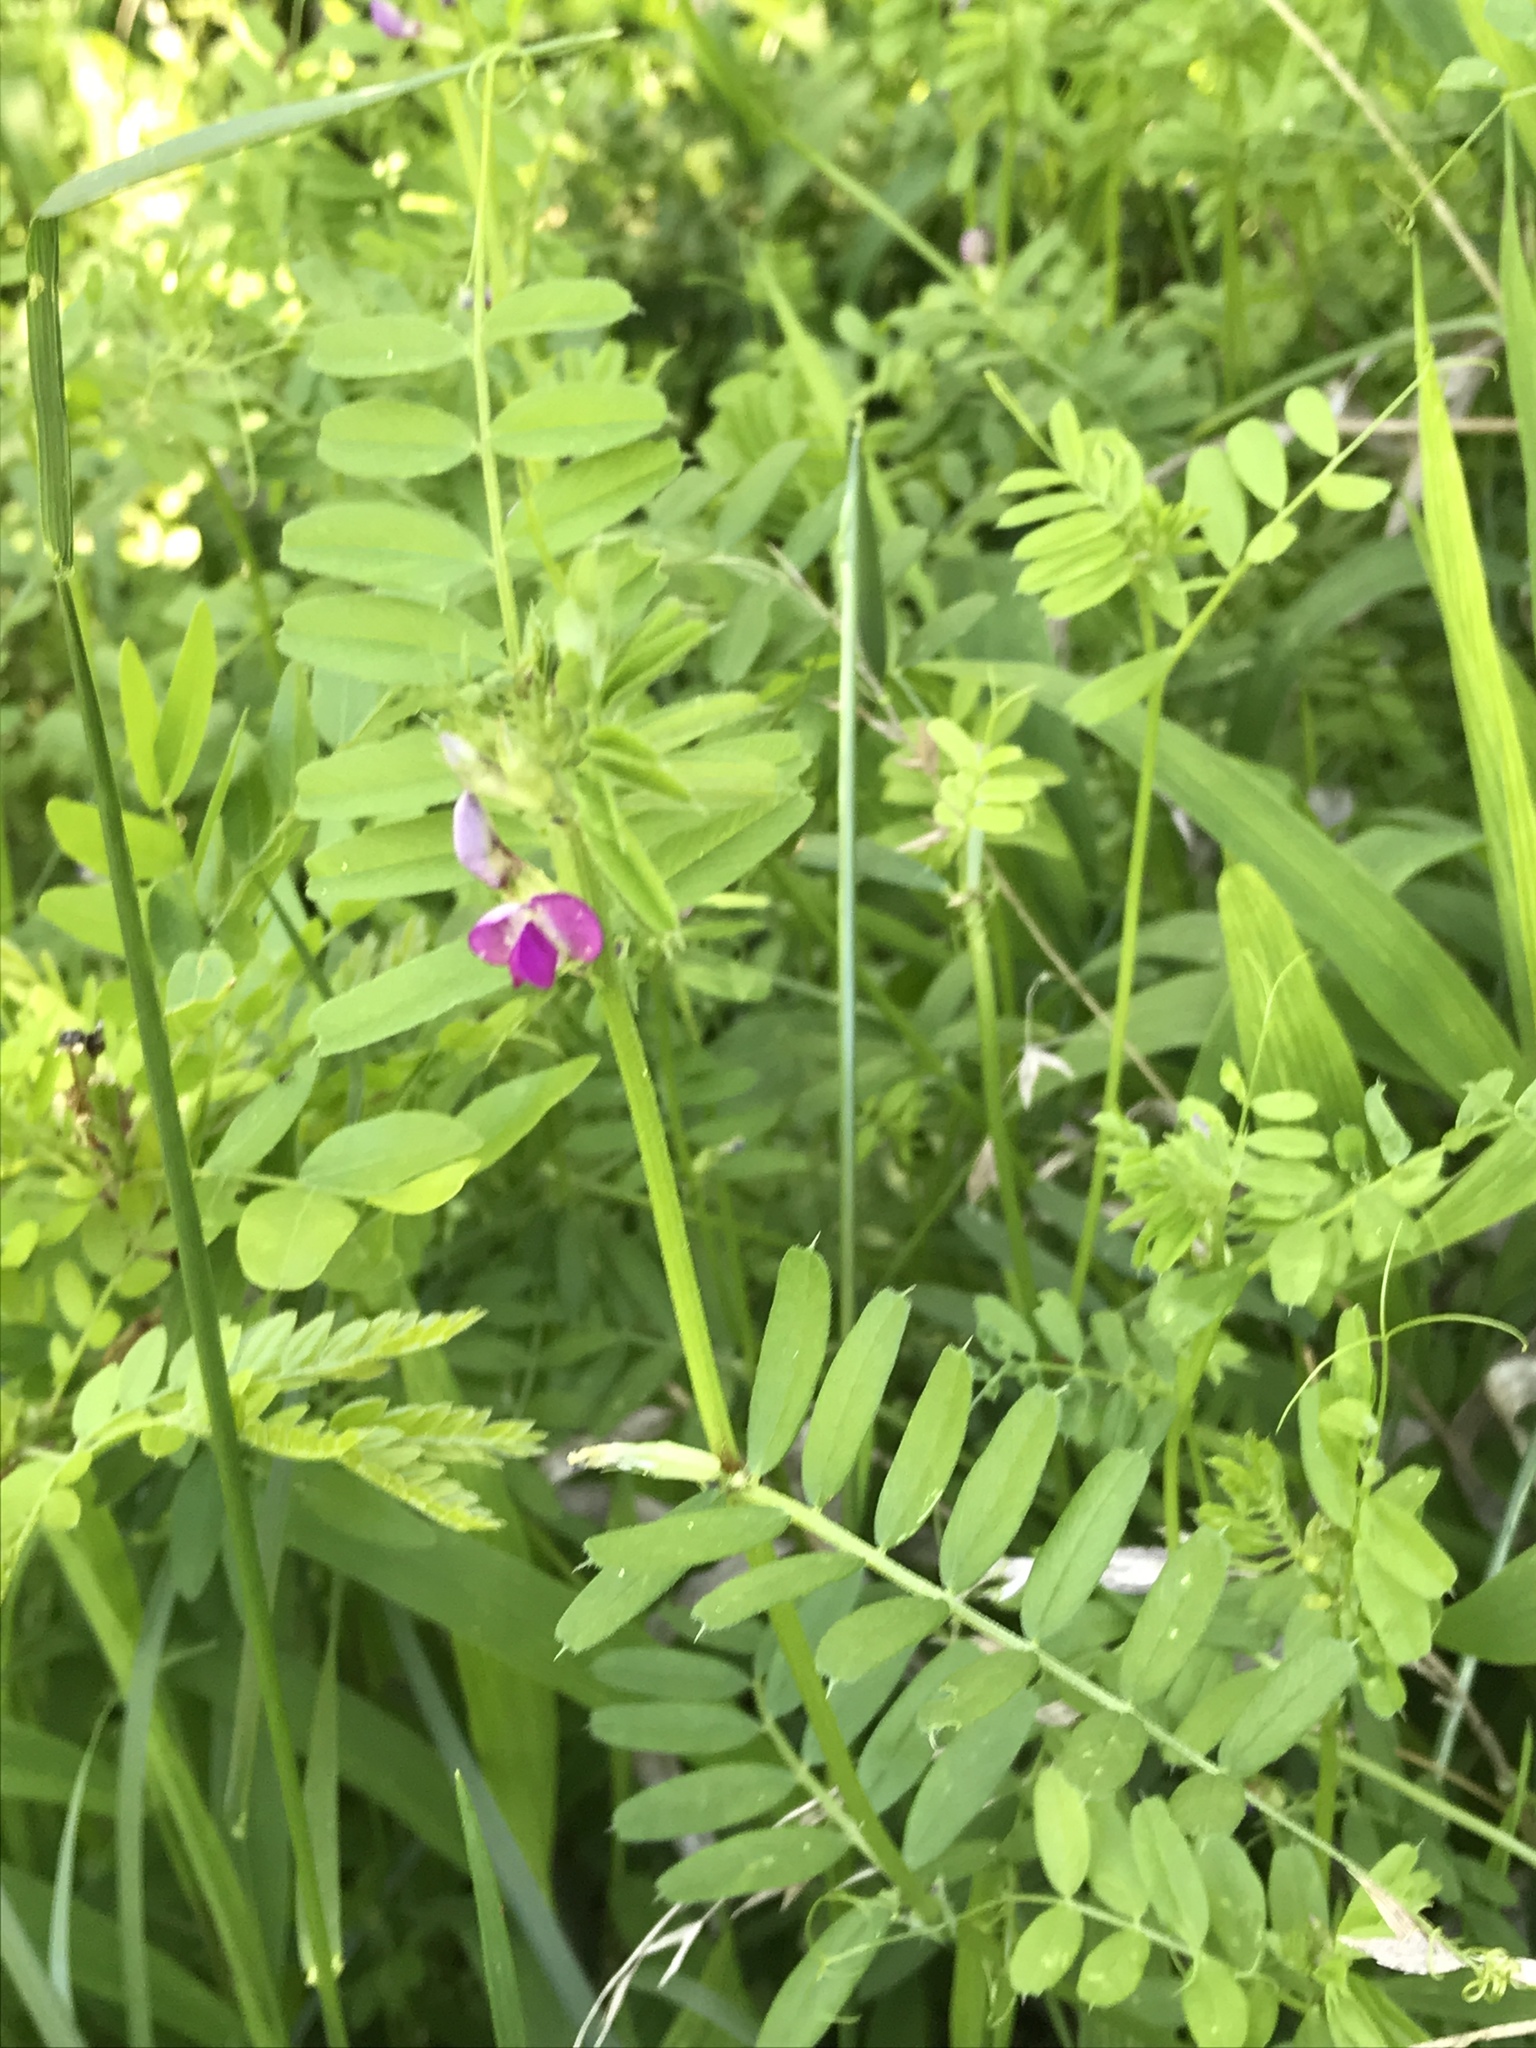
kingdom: Plantae
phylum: Tracheophyta
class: Magnoliopsida
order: Fabales
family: Fabaceae
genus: Vicia
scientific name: Vicia sativa
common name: Garden vetch
